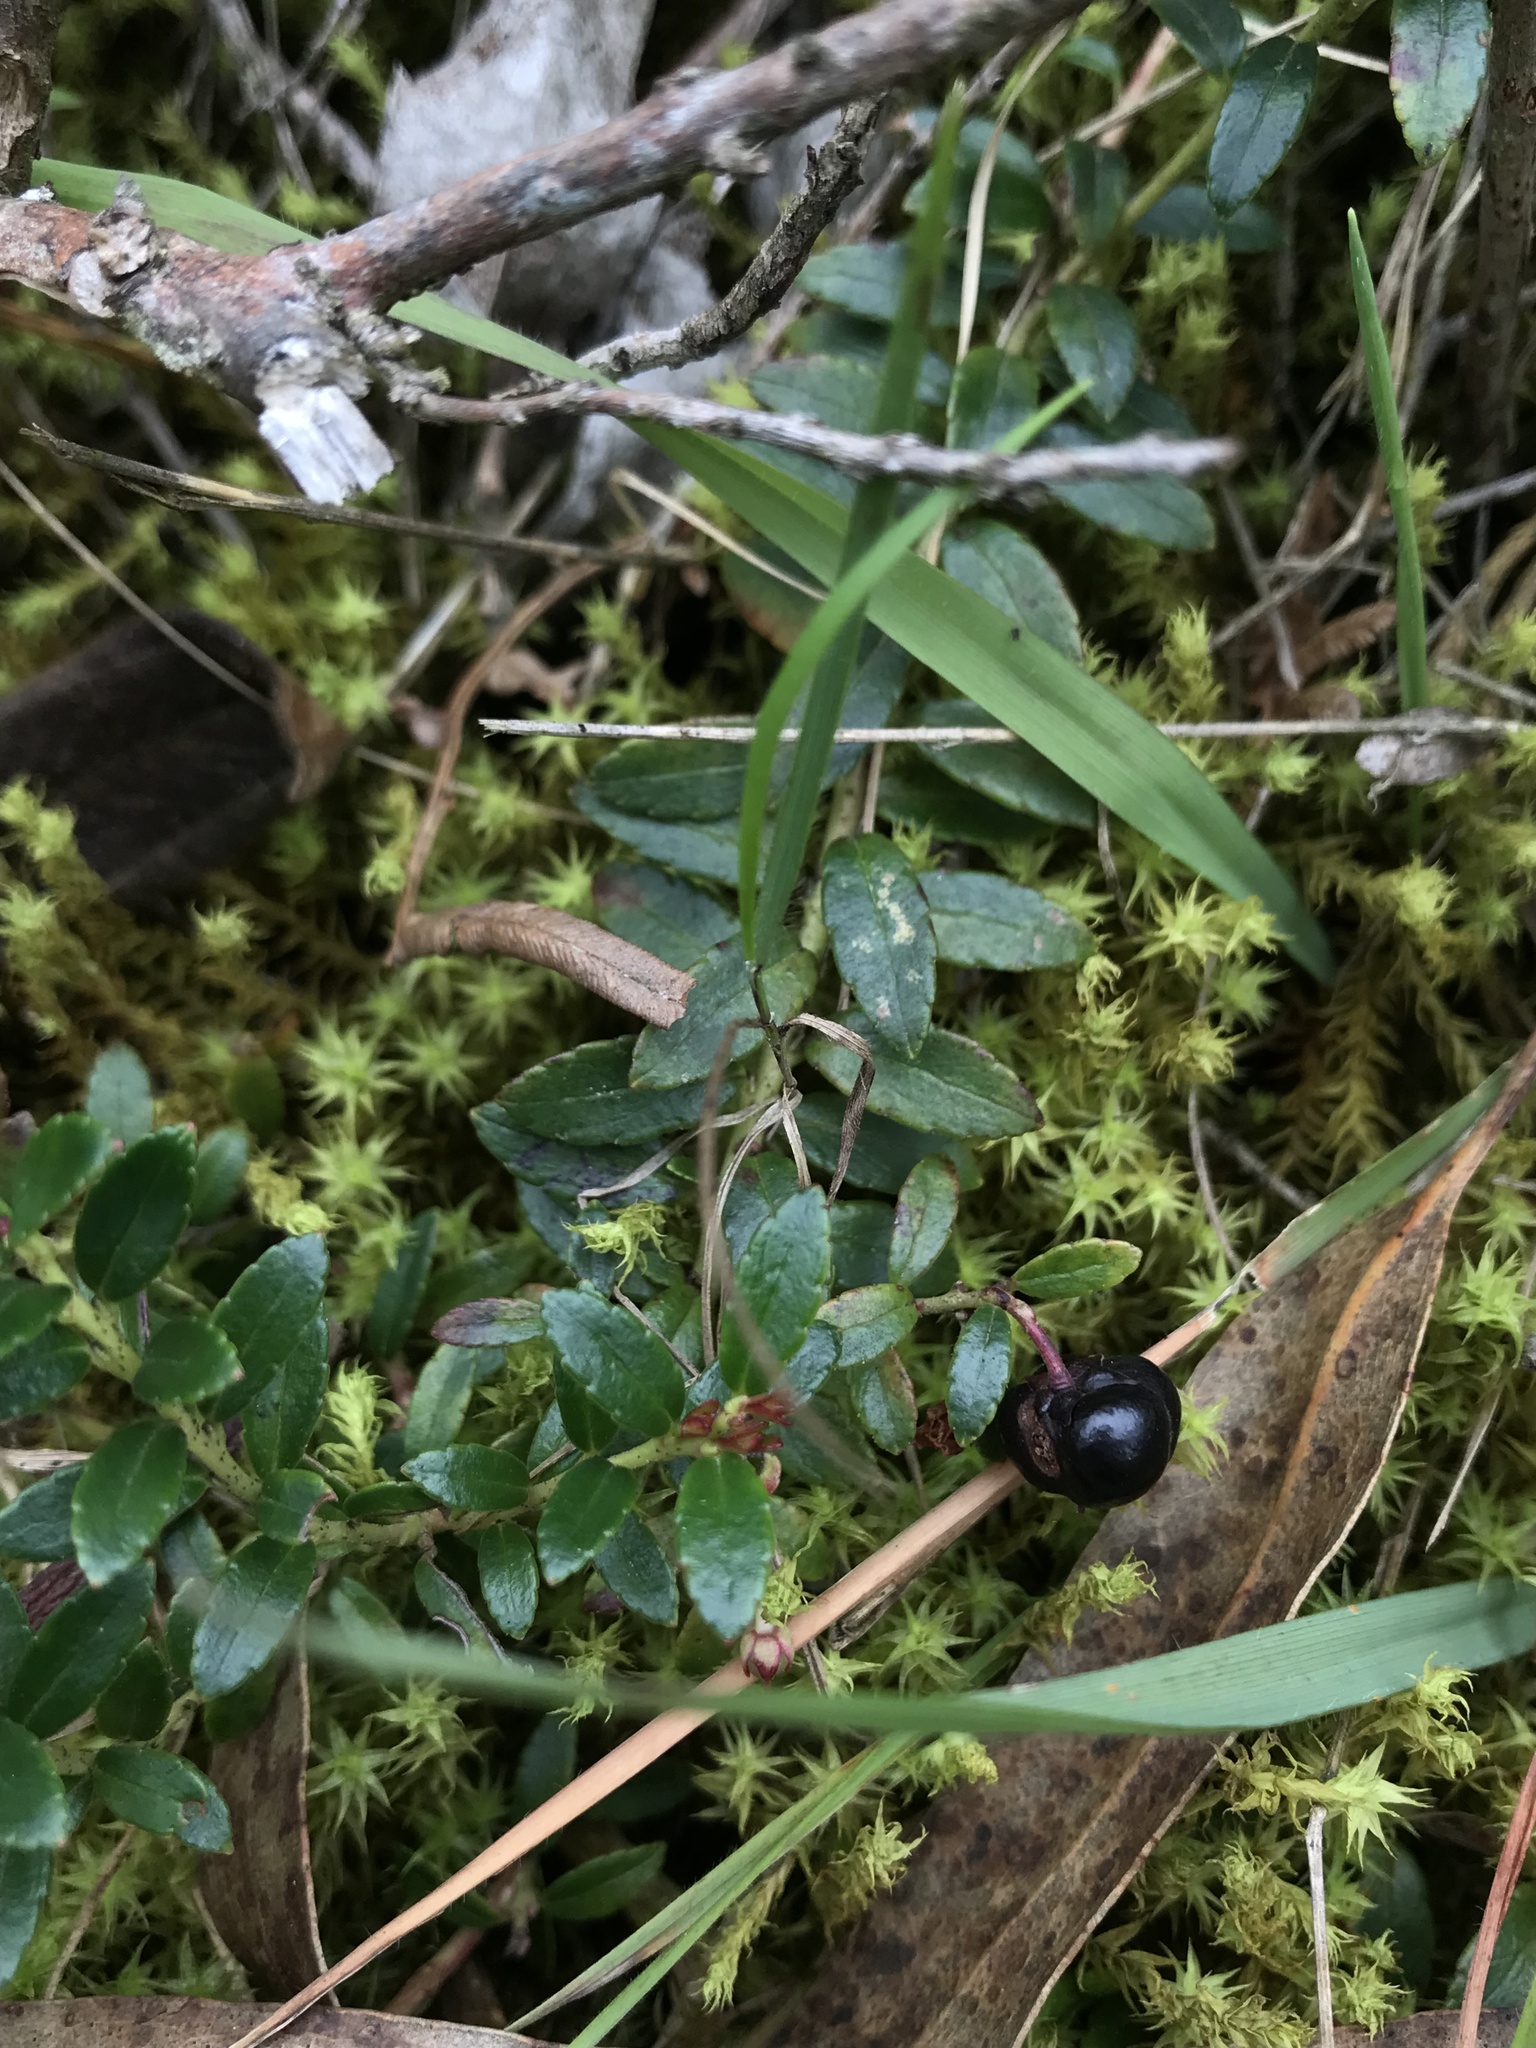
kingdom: Plantae
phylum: Tracheophyta
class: Magnoliopsida
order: Ericales
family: Ericaceae
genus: Gaultheria
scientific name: Gaultheria myrsinoides
